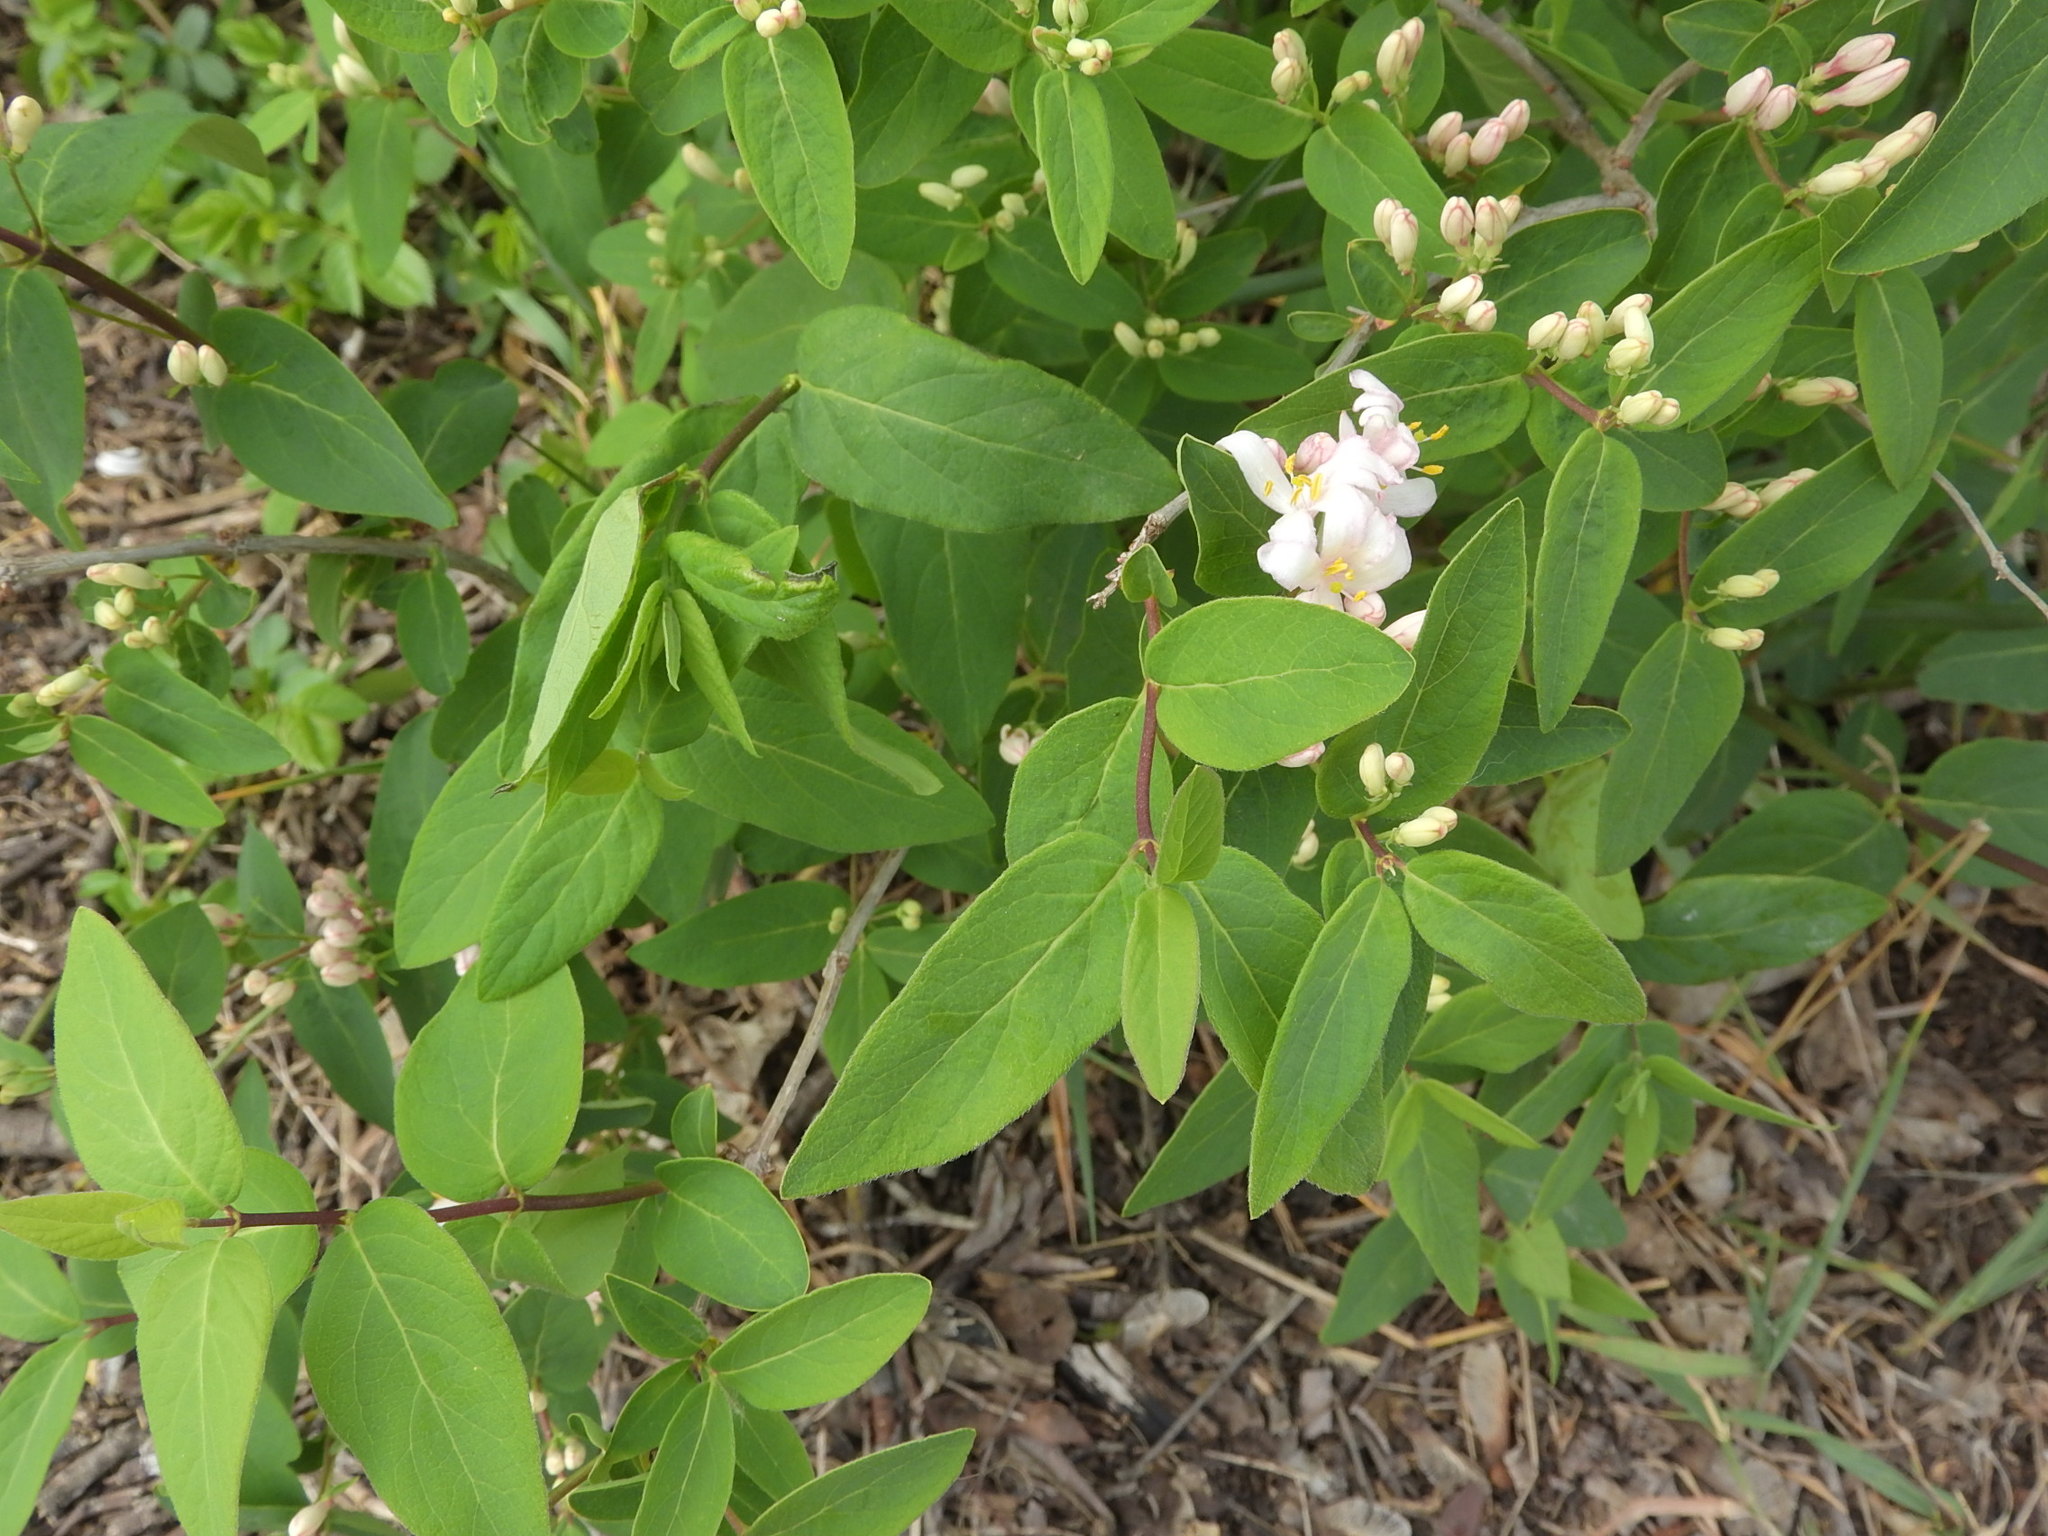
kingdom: Plantae
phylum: Tracheophyta
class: Magnoliopsida
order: Dipsacales
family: Caprifoliaceae
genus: Lonicera
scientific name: Lonicera tatarica
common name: Tatarian honeysuckle
